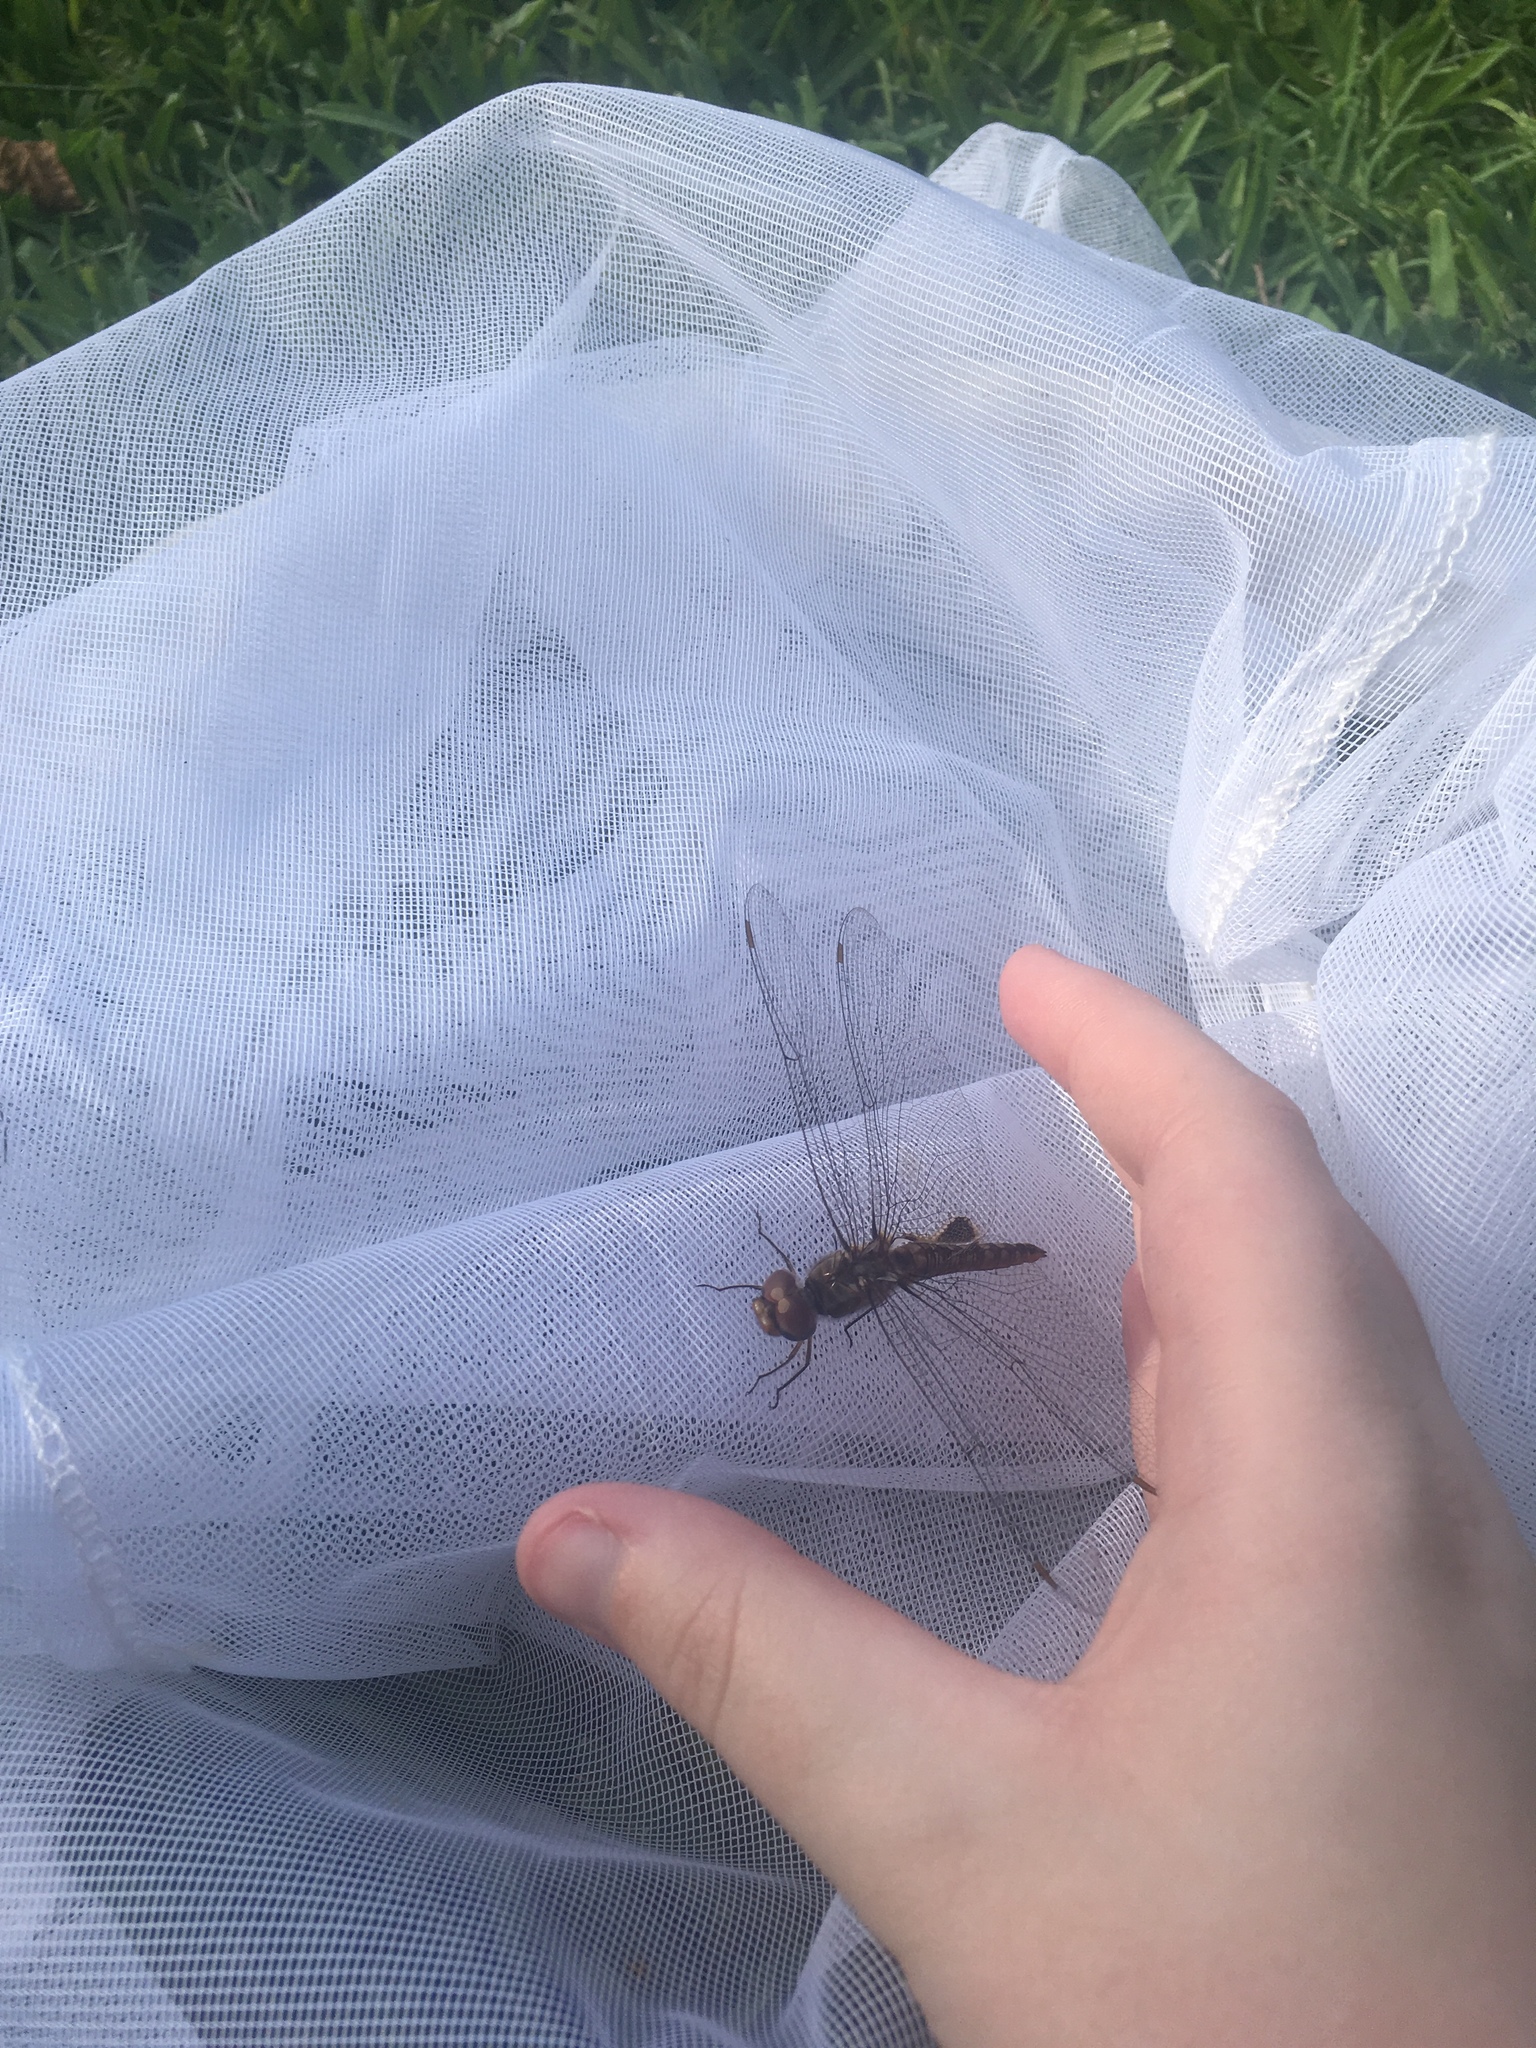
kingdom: Animalia
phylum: Arthropoda
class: Insecta
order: Odonata
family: Libellulidae
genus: Pantala
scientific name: Pantala hymenaea
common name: Spot-winged glider
